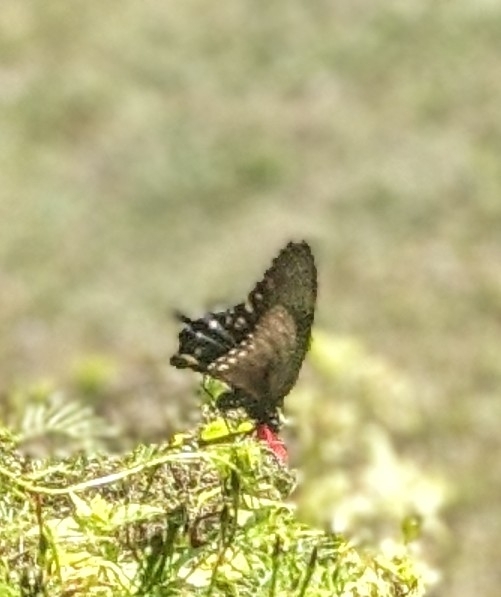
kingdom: Animalia
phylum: Arthropoda
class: Insecta
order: Lepidoptera
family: Papilionidae
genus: Battus
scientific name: Battus philenor
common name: Pipevine swallowtail
